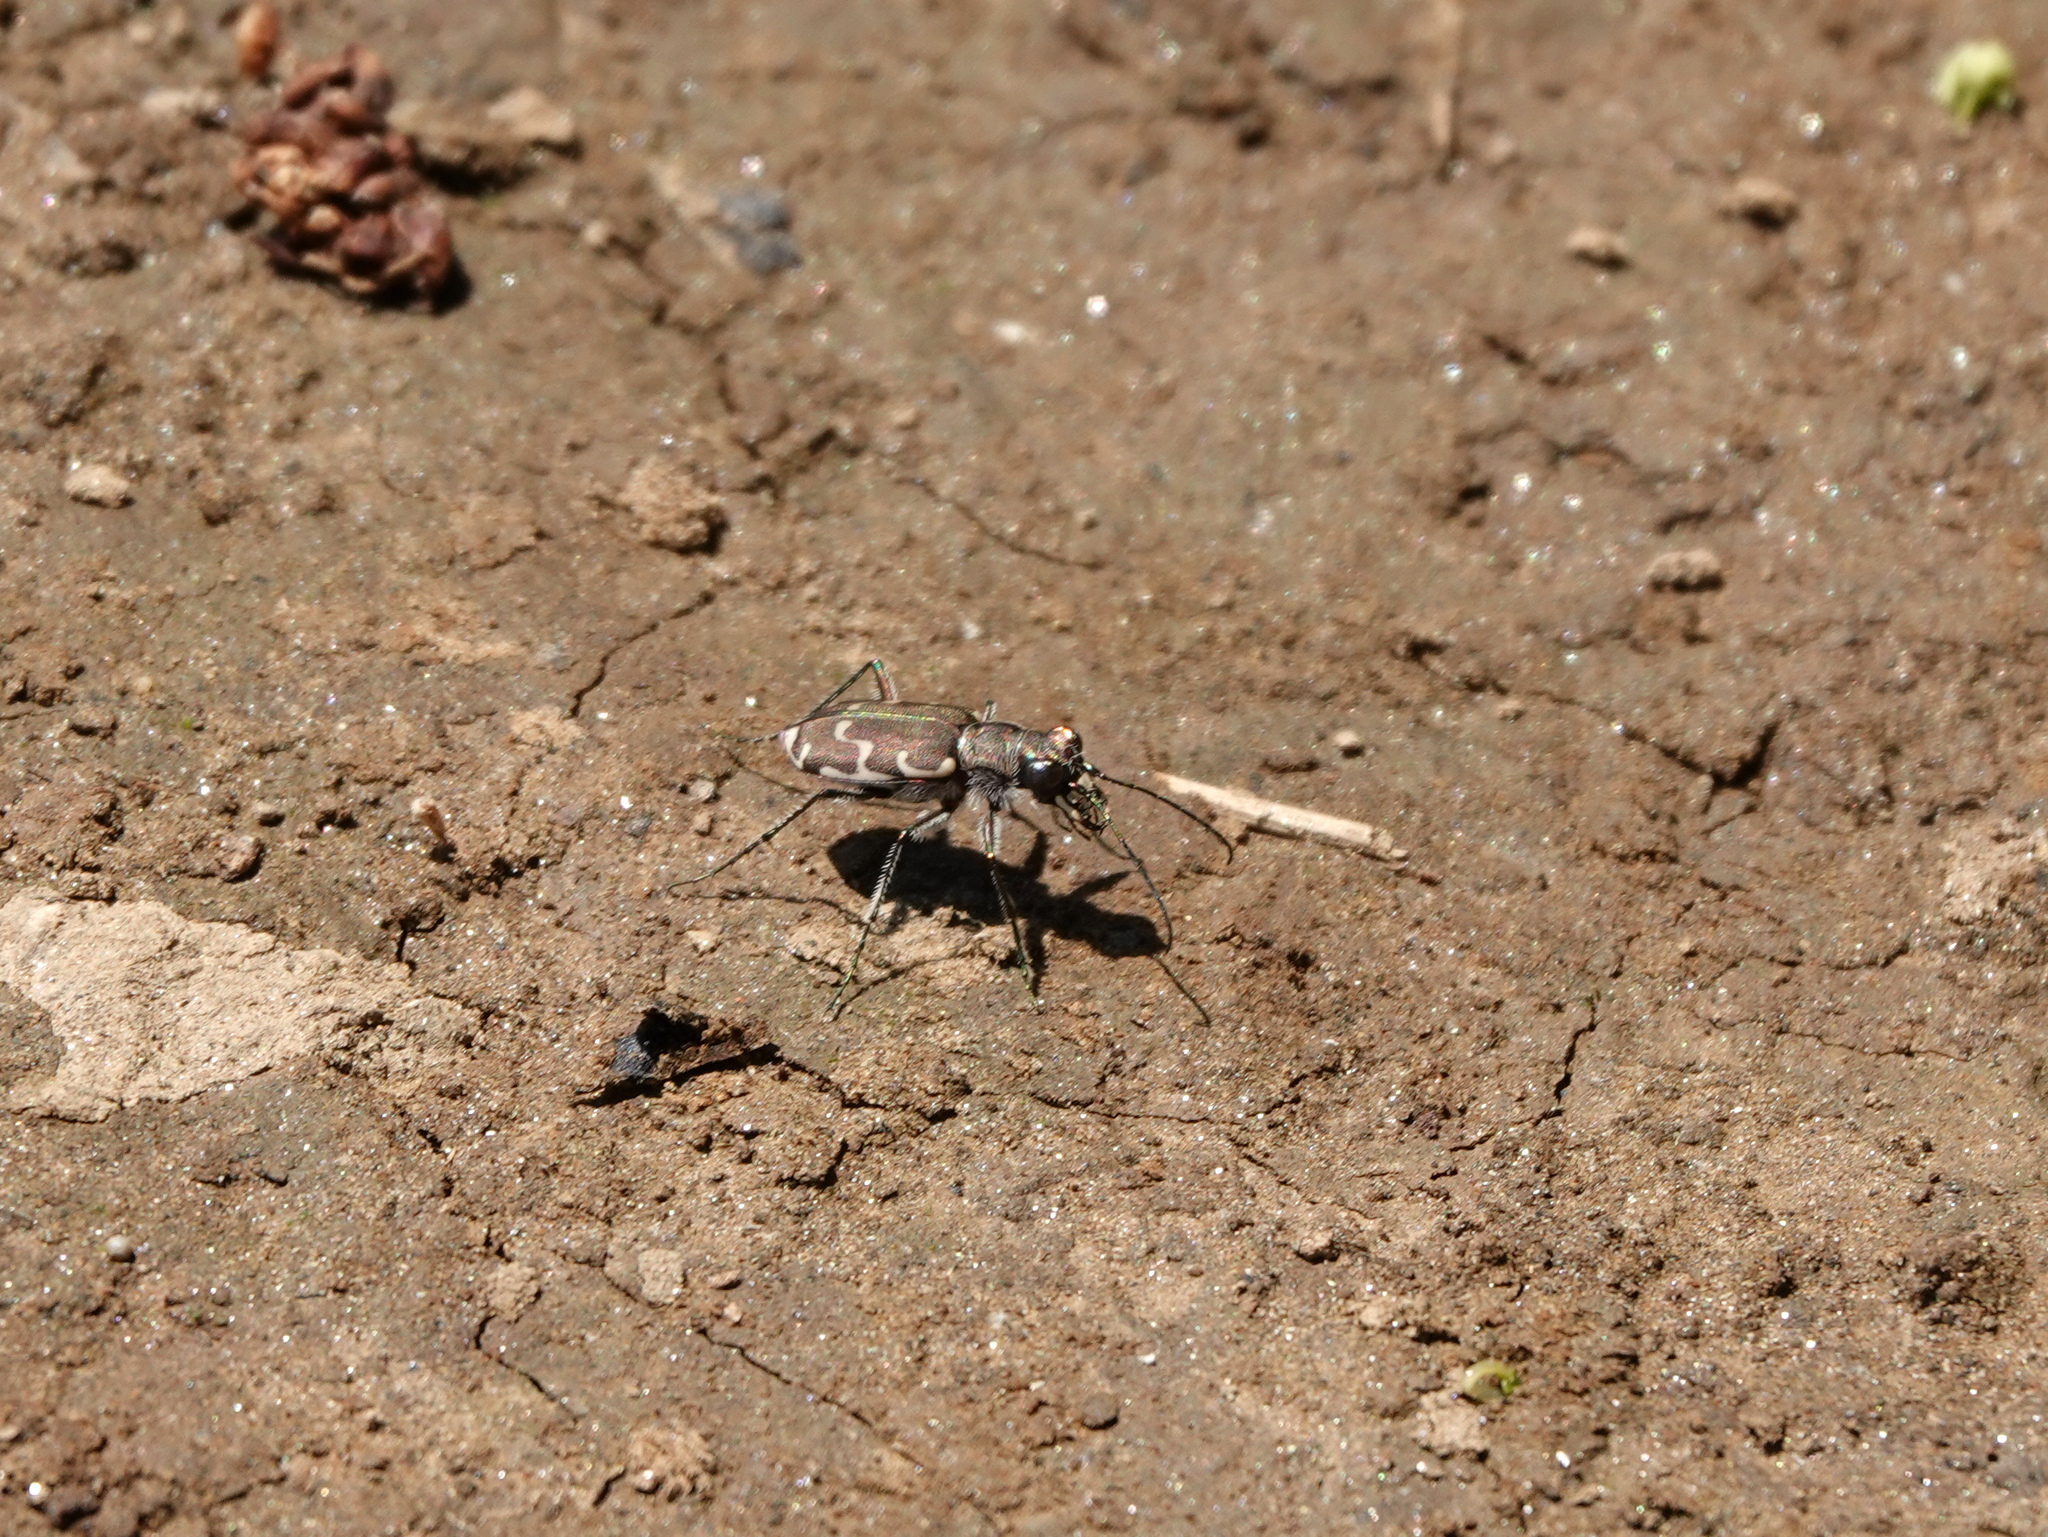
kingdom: Animalia
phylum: Arthropoda
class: Insecta
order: Coleoptera
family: Carabidae
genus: Cicindela
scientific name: Cicindela repanda
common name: Bronzed tiger beetle
